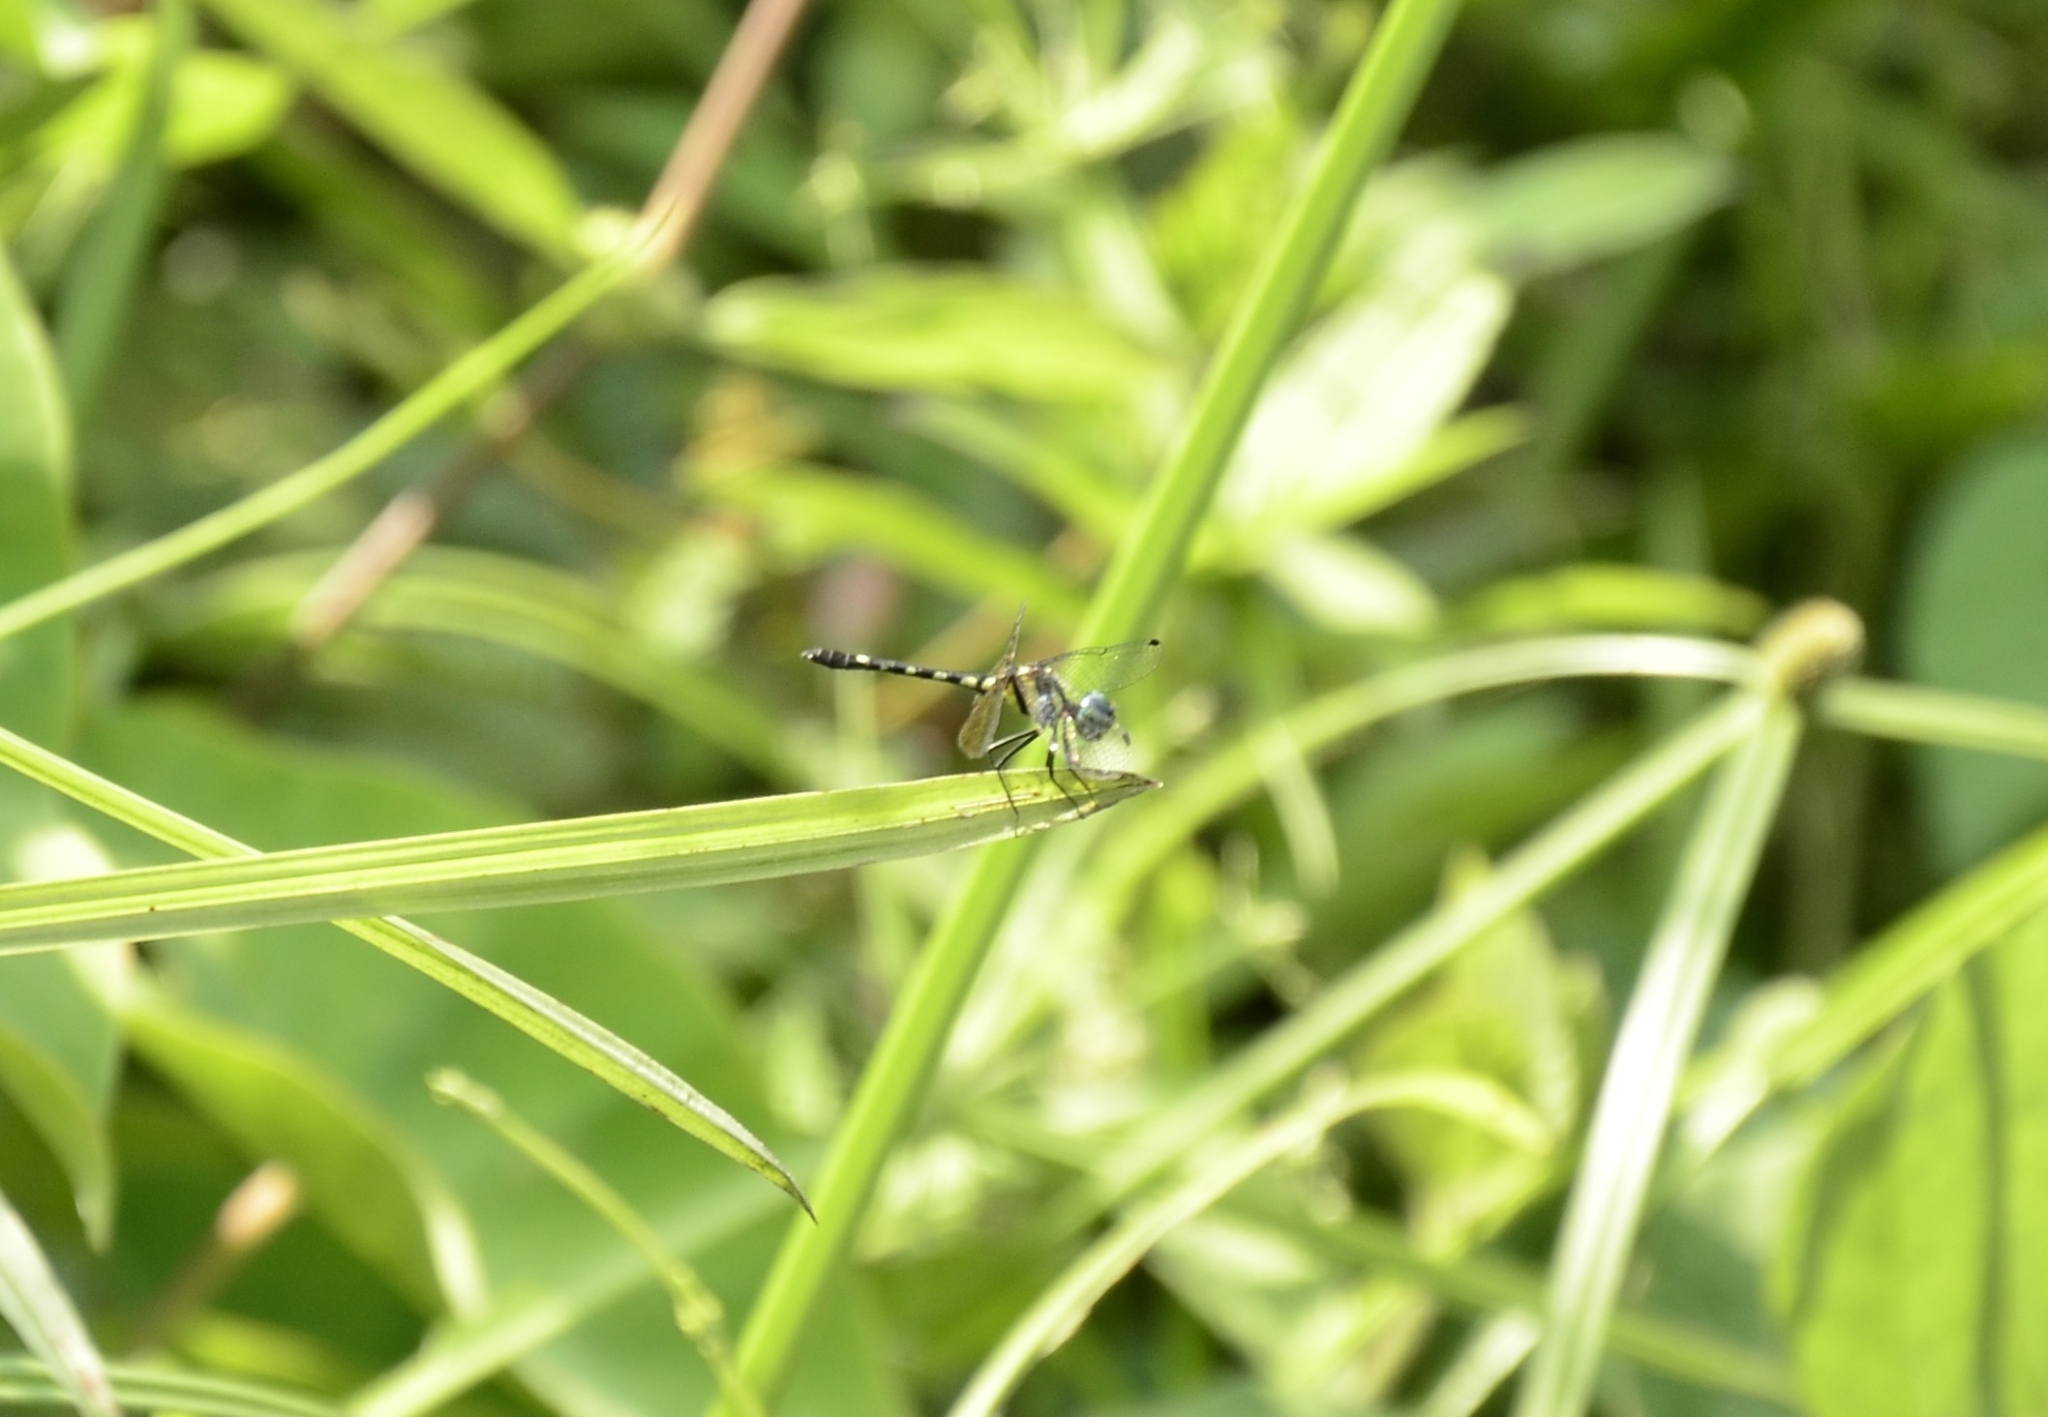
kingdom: Animalia
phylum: Arthropoda
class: Insecta
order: Odonata
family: Libellulidae
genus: Tetrathemis
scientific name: Tetrathemis platyptera
